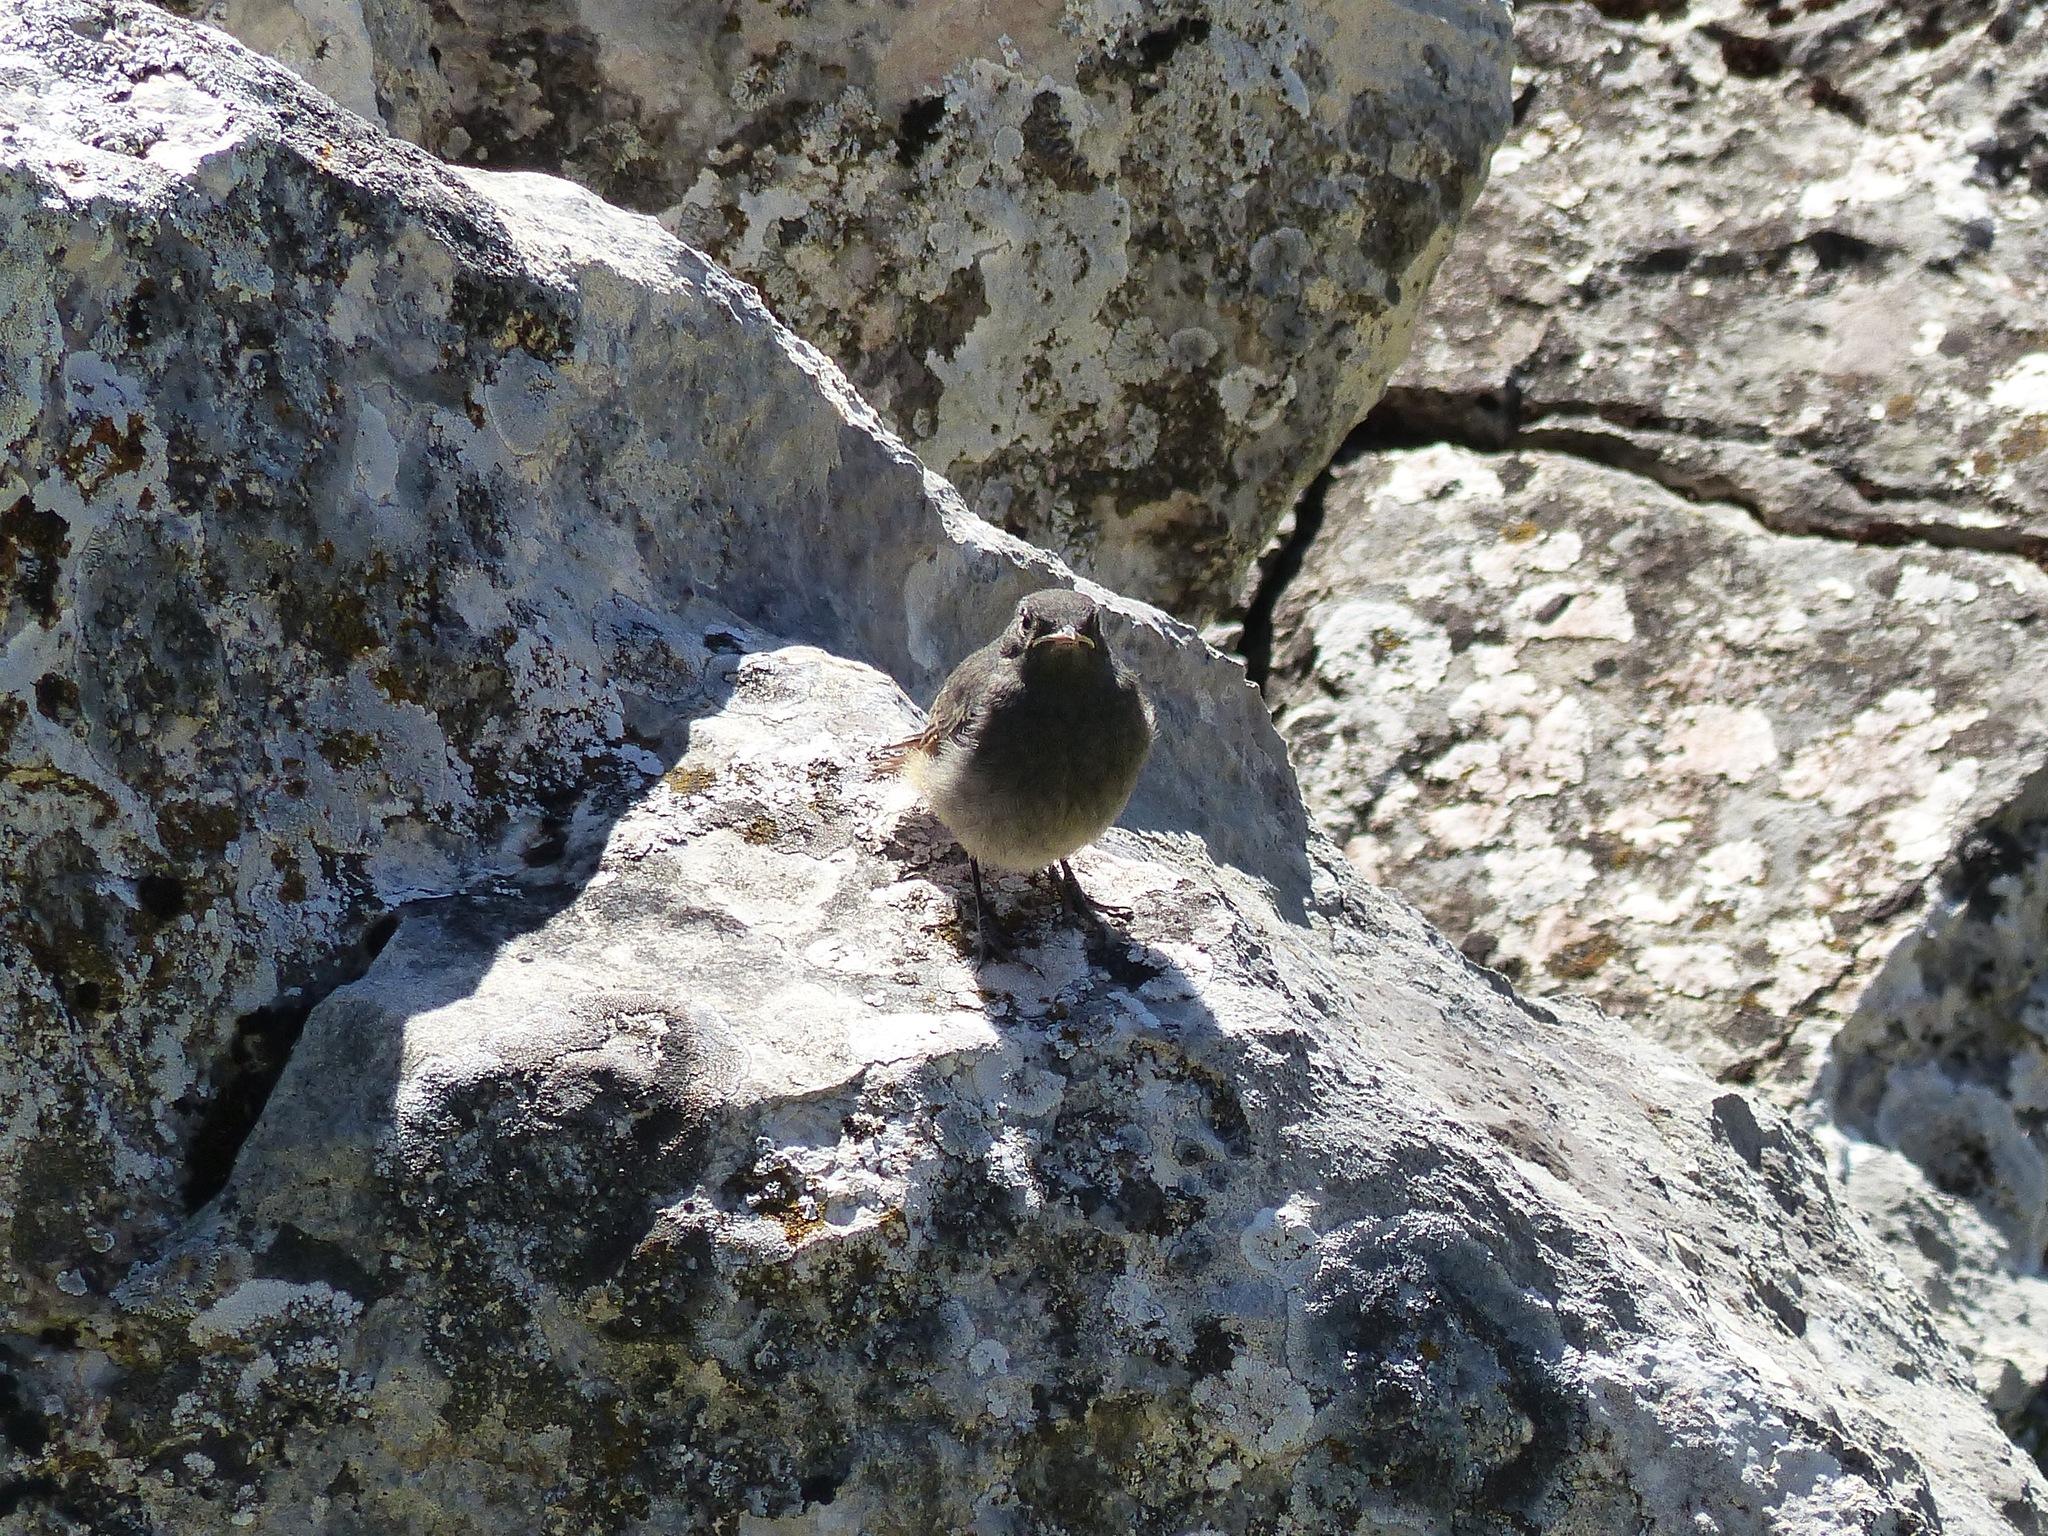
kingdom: Animalia
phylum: Chordata
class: Aves
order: Passeriformes
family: Muscicapidae
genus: Phoenicurus
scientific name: Phoenicurus ochruros
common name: Black redstart
